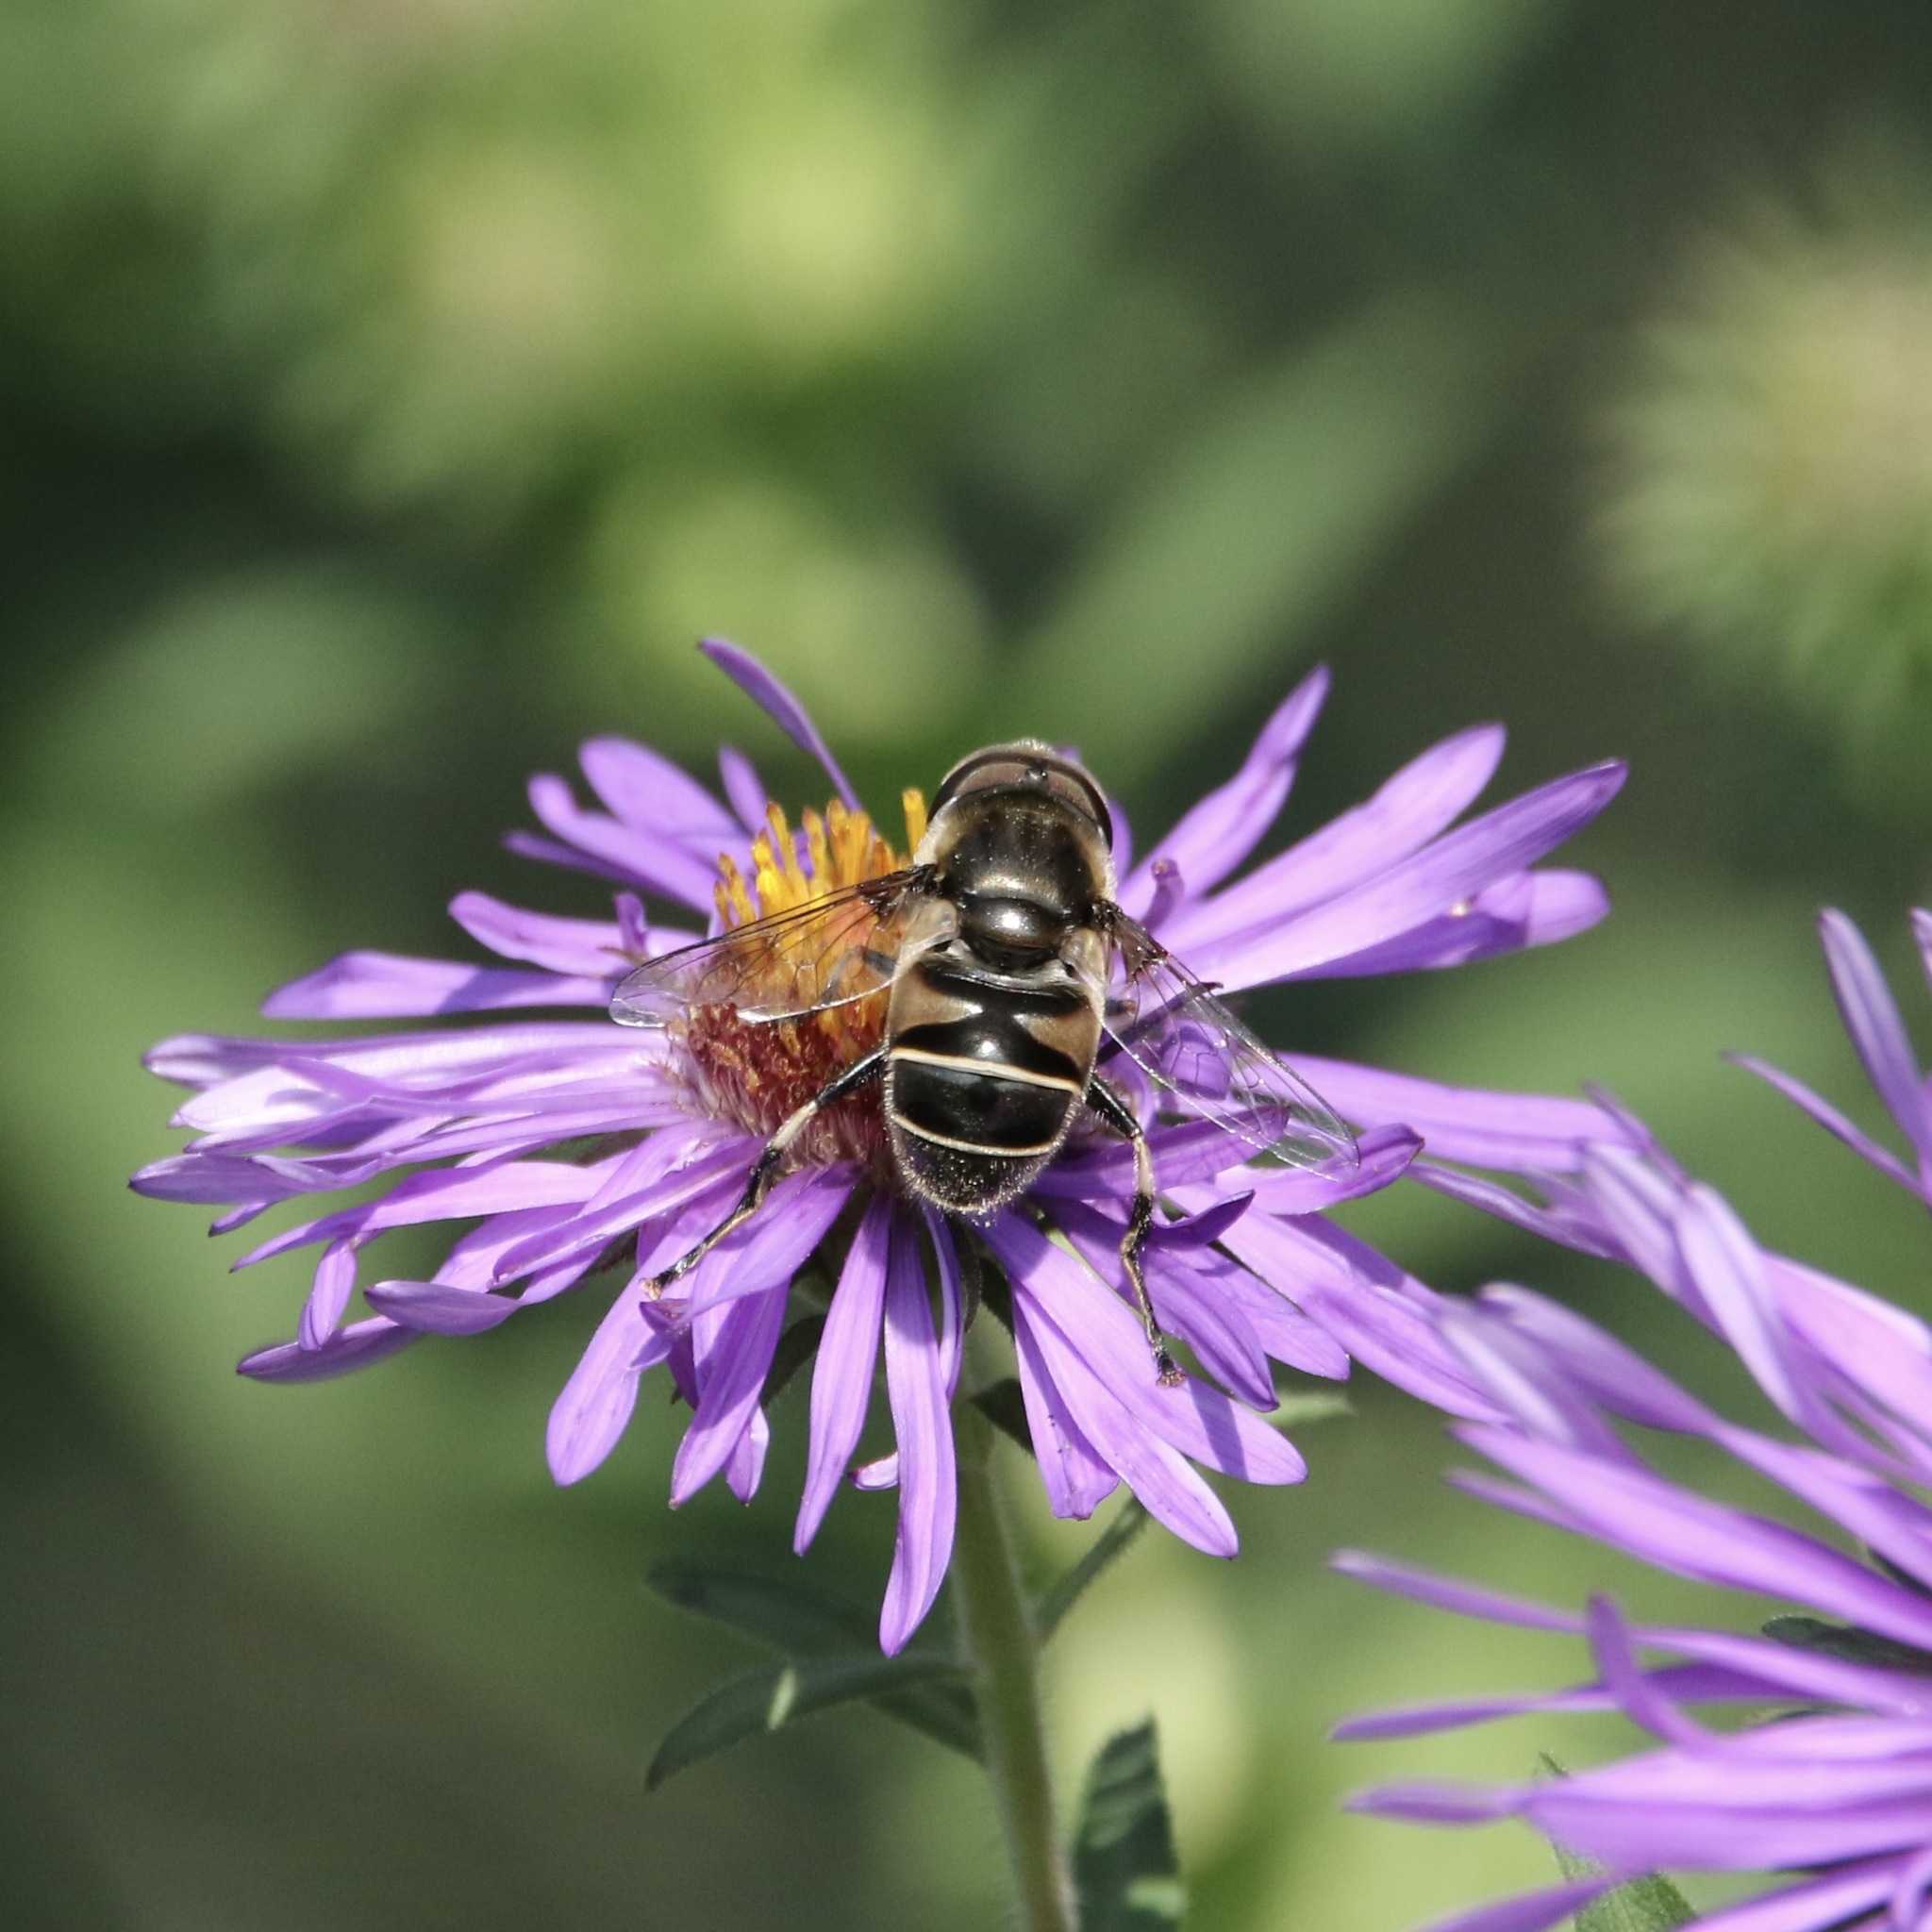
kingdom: Animalia
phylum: Arthropoda
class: Insecta
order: Diptera
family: Syrphidae
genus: Eristalis
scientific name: Eristalis dimidiata
